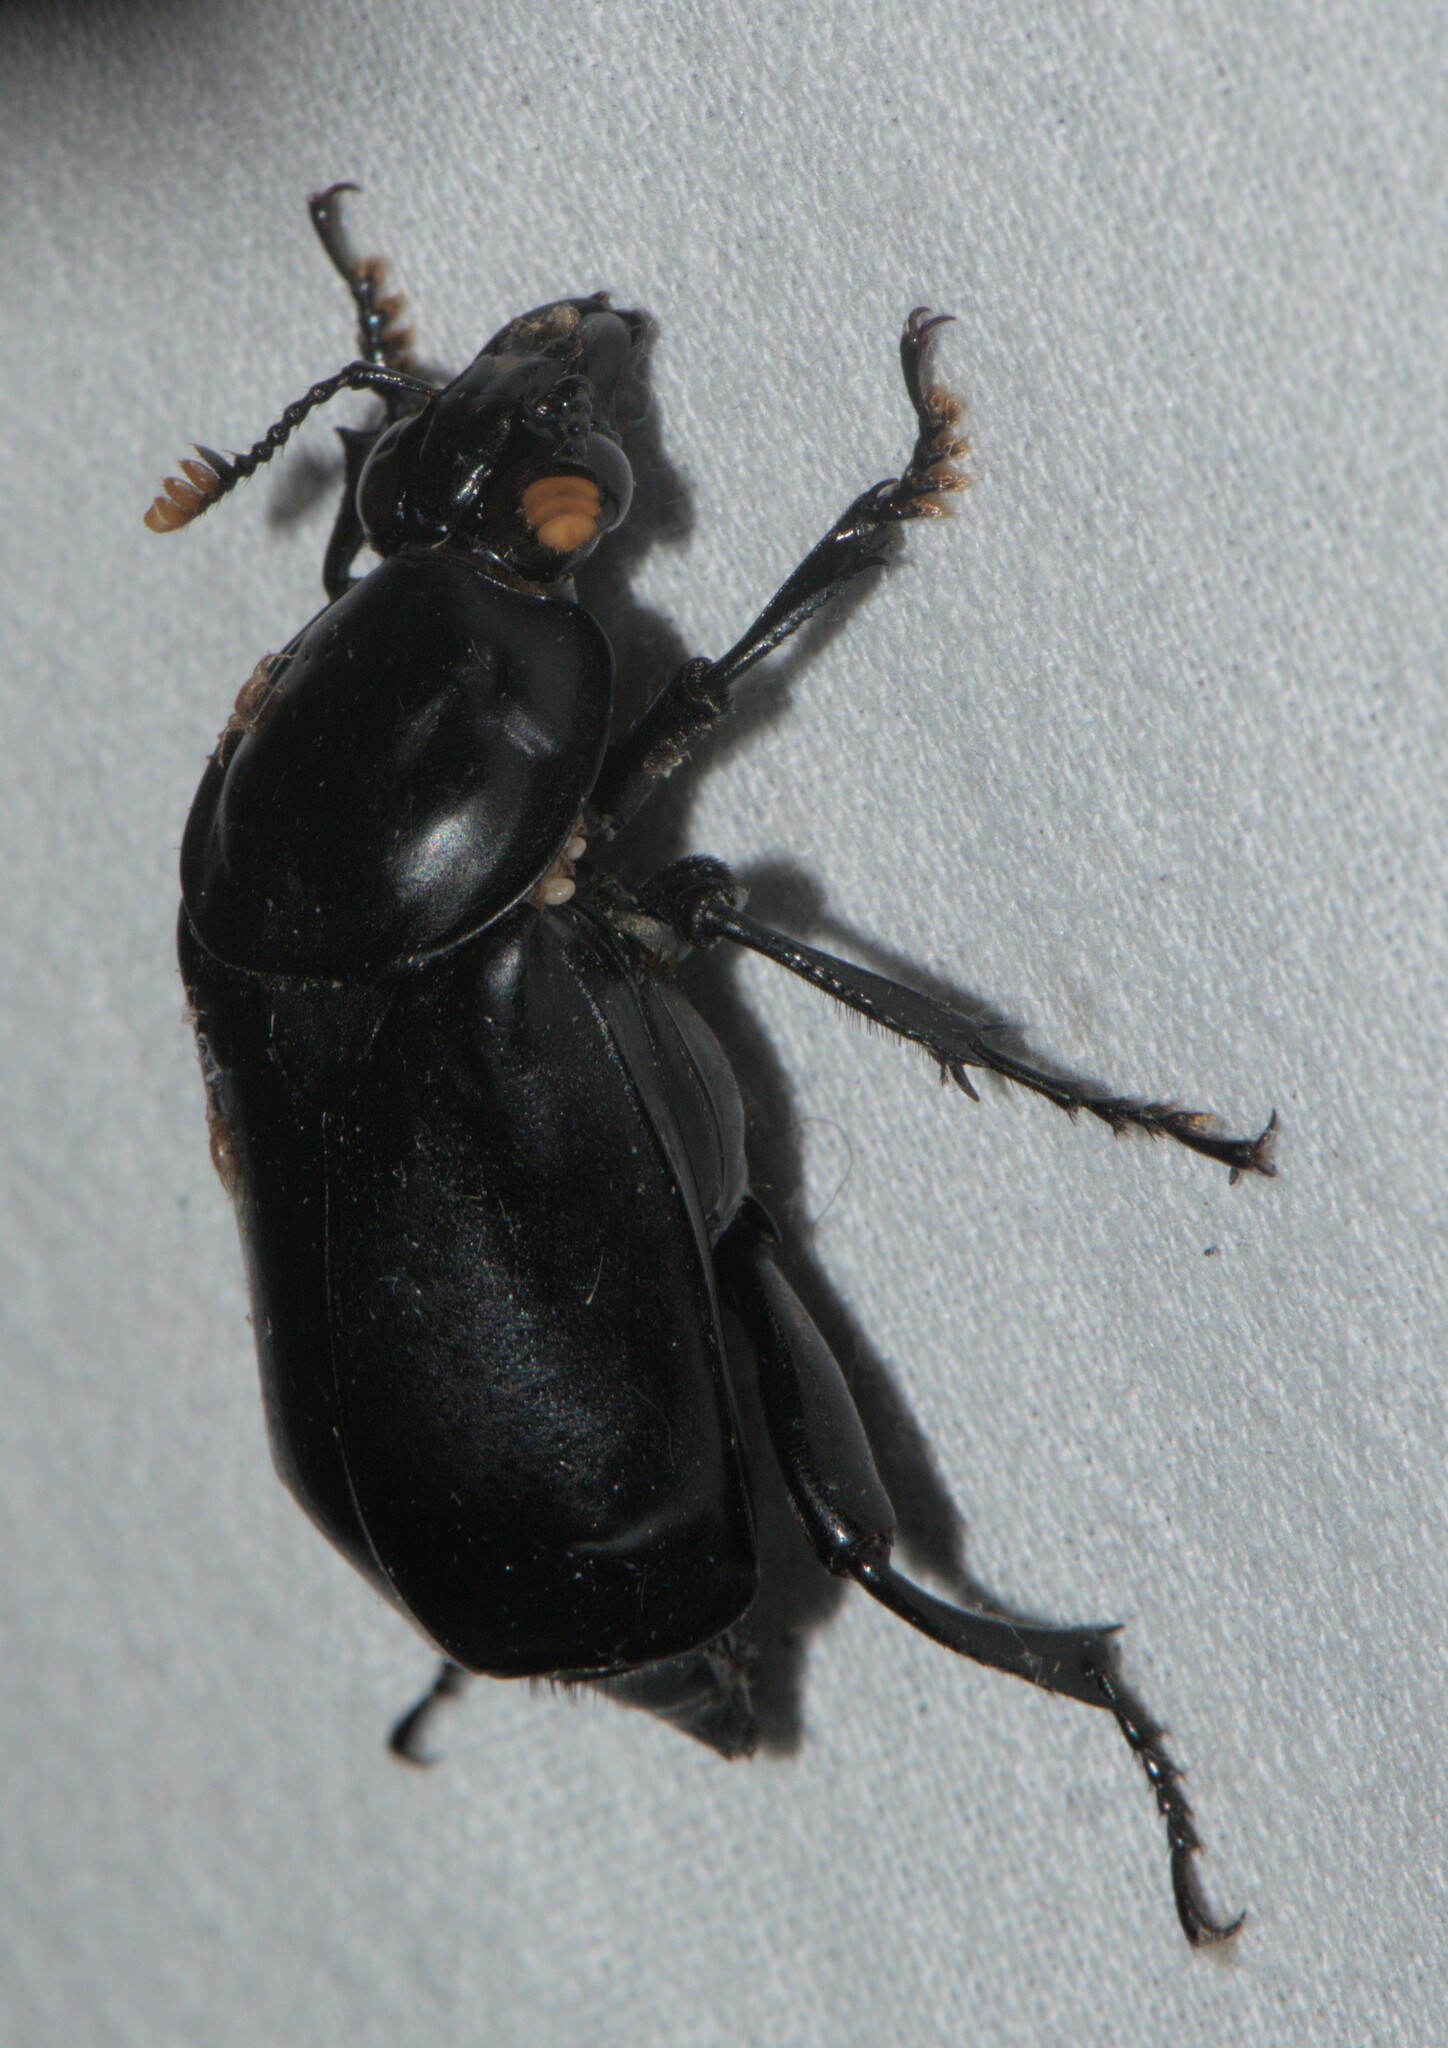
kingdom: Animalia
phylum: Arthropoda
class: Insecta
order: Coleoptera
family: Staphylinidae
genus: Nicrophorus
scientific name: Nicrophorus concolor
